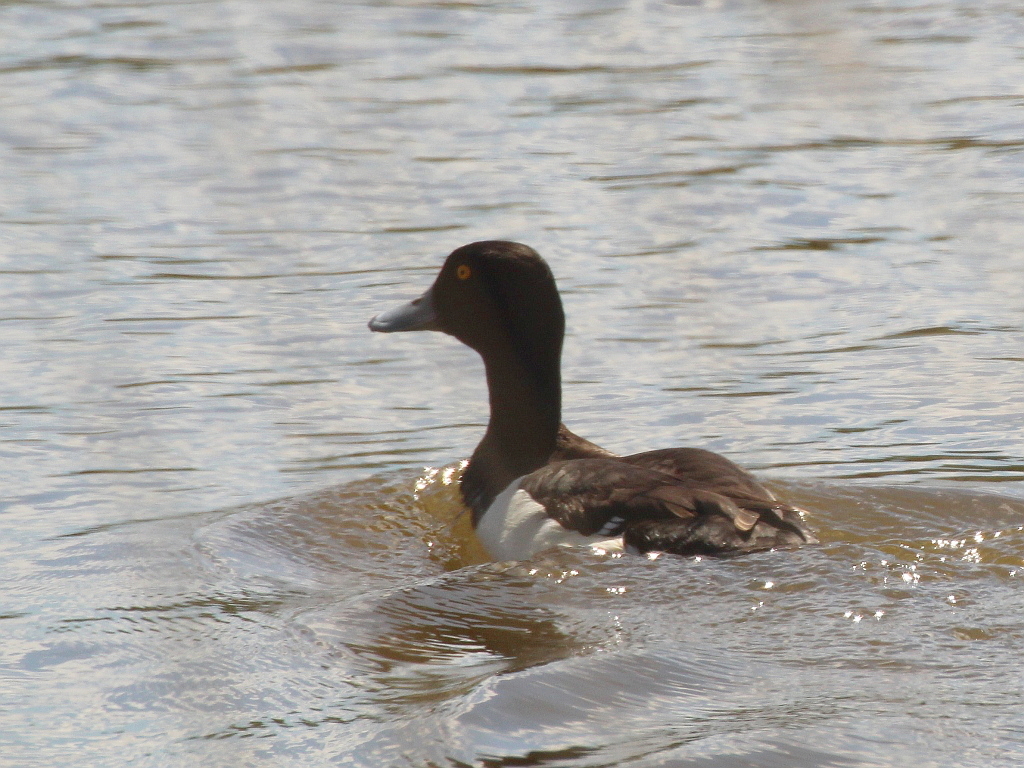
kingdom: Animalia
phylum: Chordata
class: Aves
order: Anseriformes
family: Anatidae
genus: Aythya
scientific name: Aythya fuligula
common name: Tufted duck
